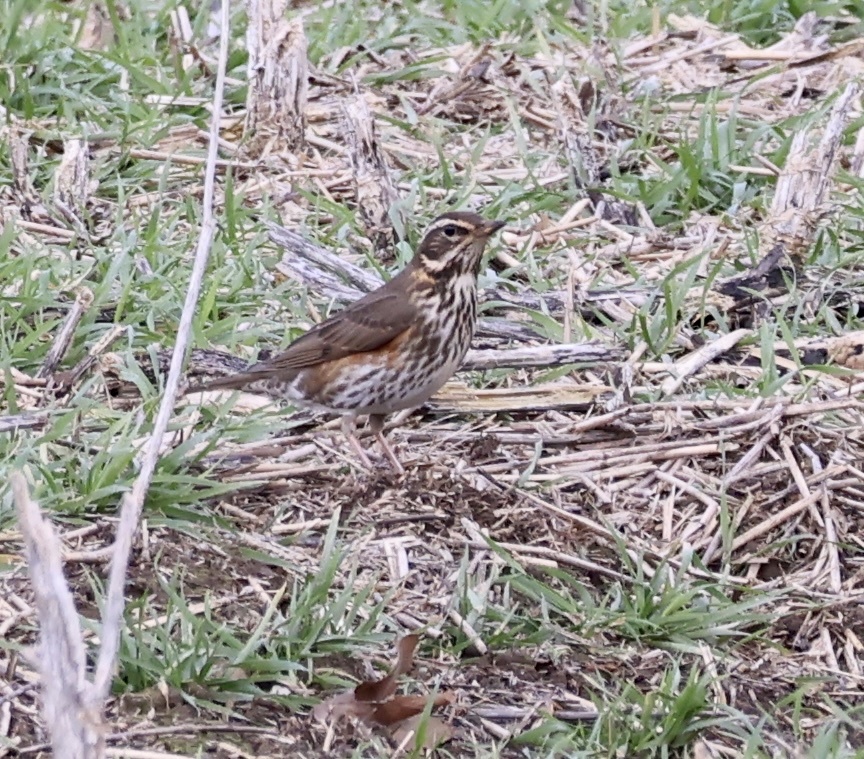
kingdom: Animalia
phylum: Chordata
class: Aves
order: Passeriformes
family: Turdidae
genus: Turdus
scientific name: Turdus iliacus
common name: Redwing
